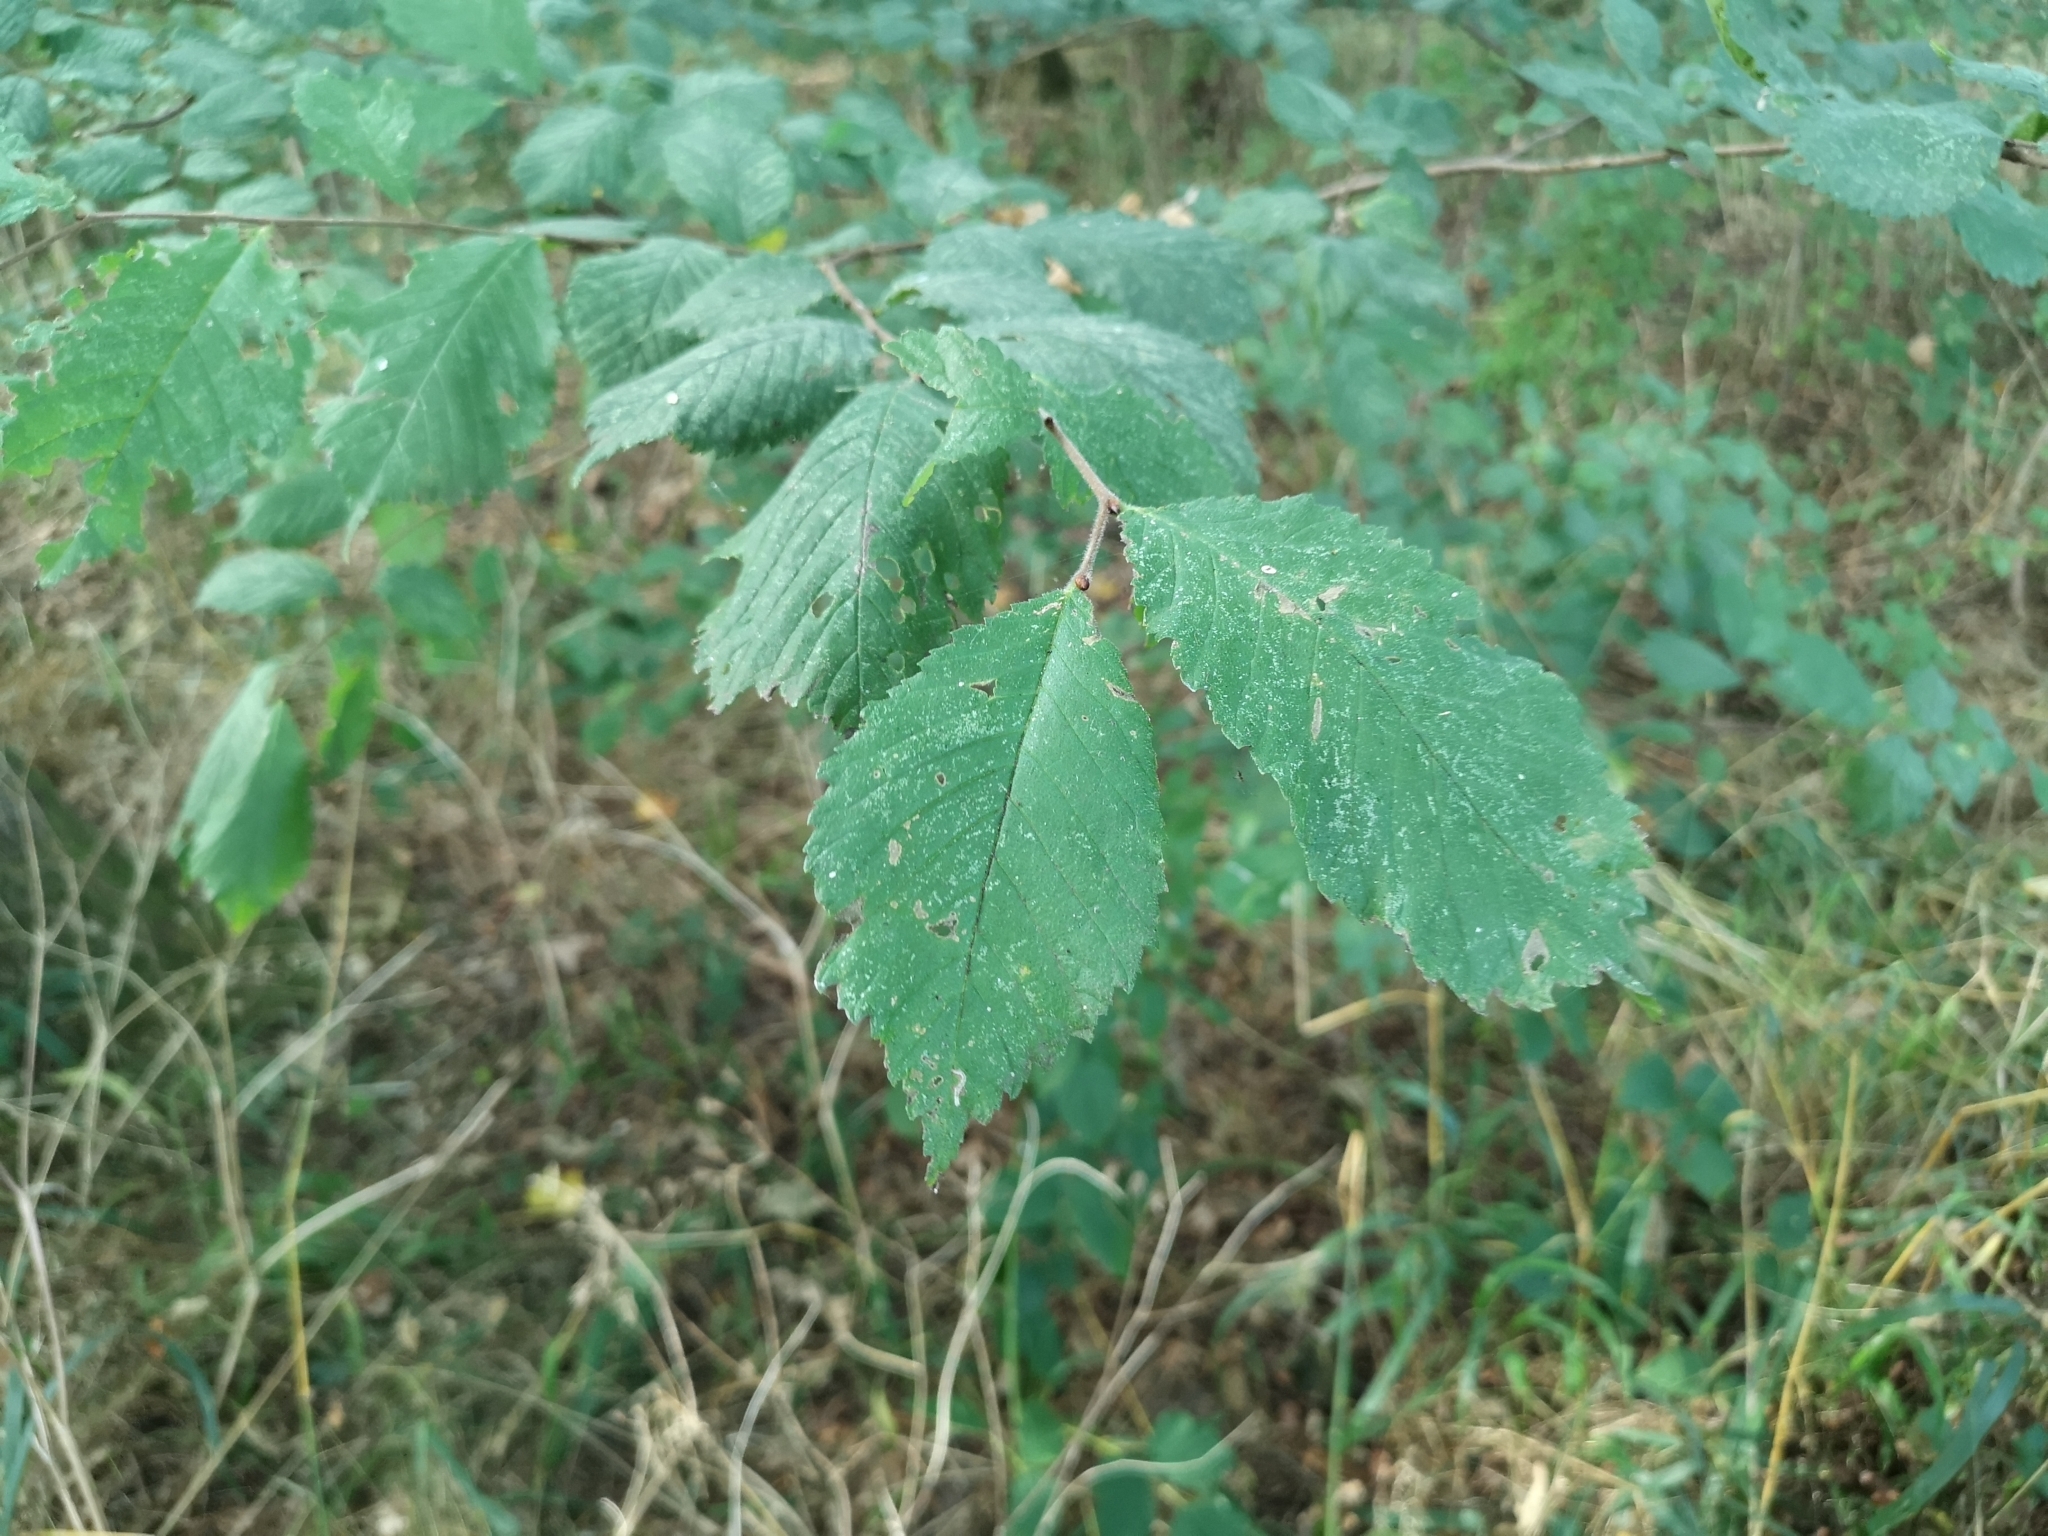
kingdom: Plantae
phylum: Tracheophyta
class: Magnoliopsida
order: Rosales
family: Ulmaceae
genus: Ulmus
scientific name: Ulmus glabra
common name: Wych elm
